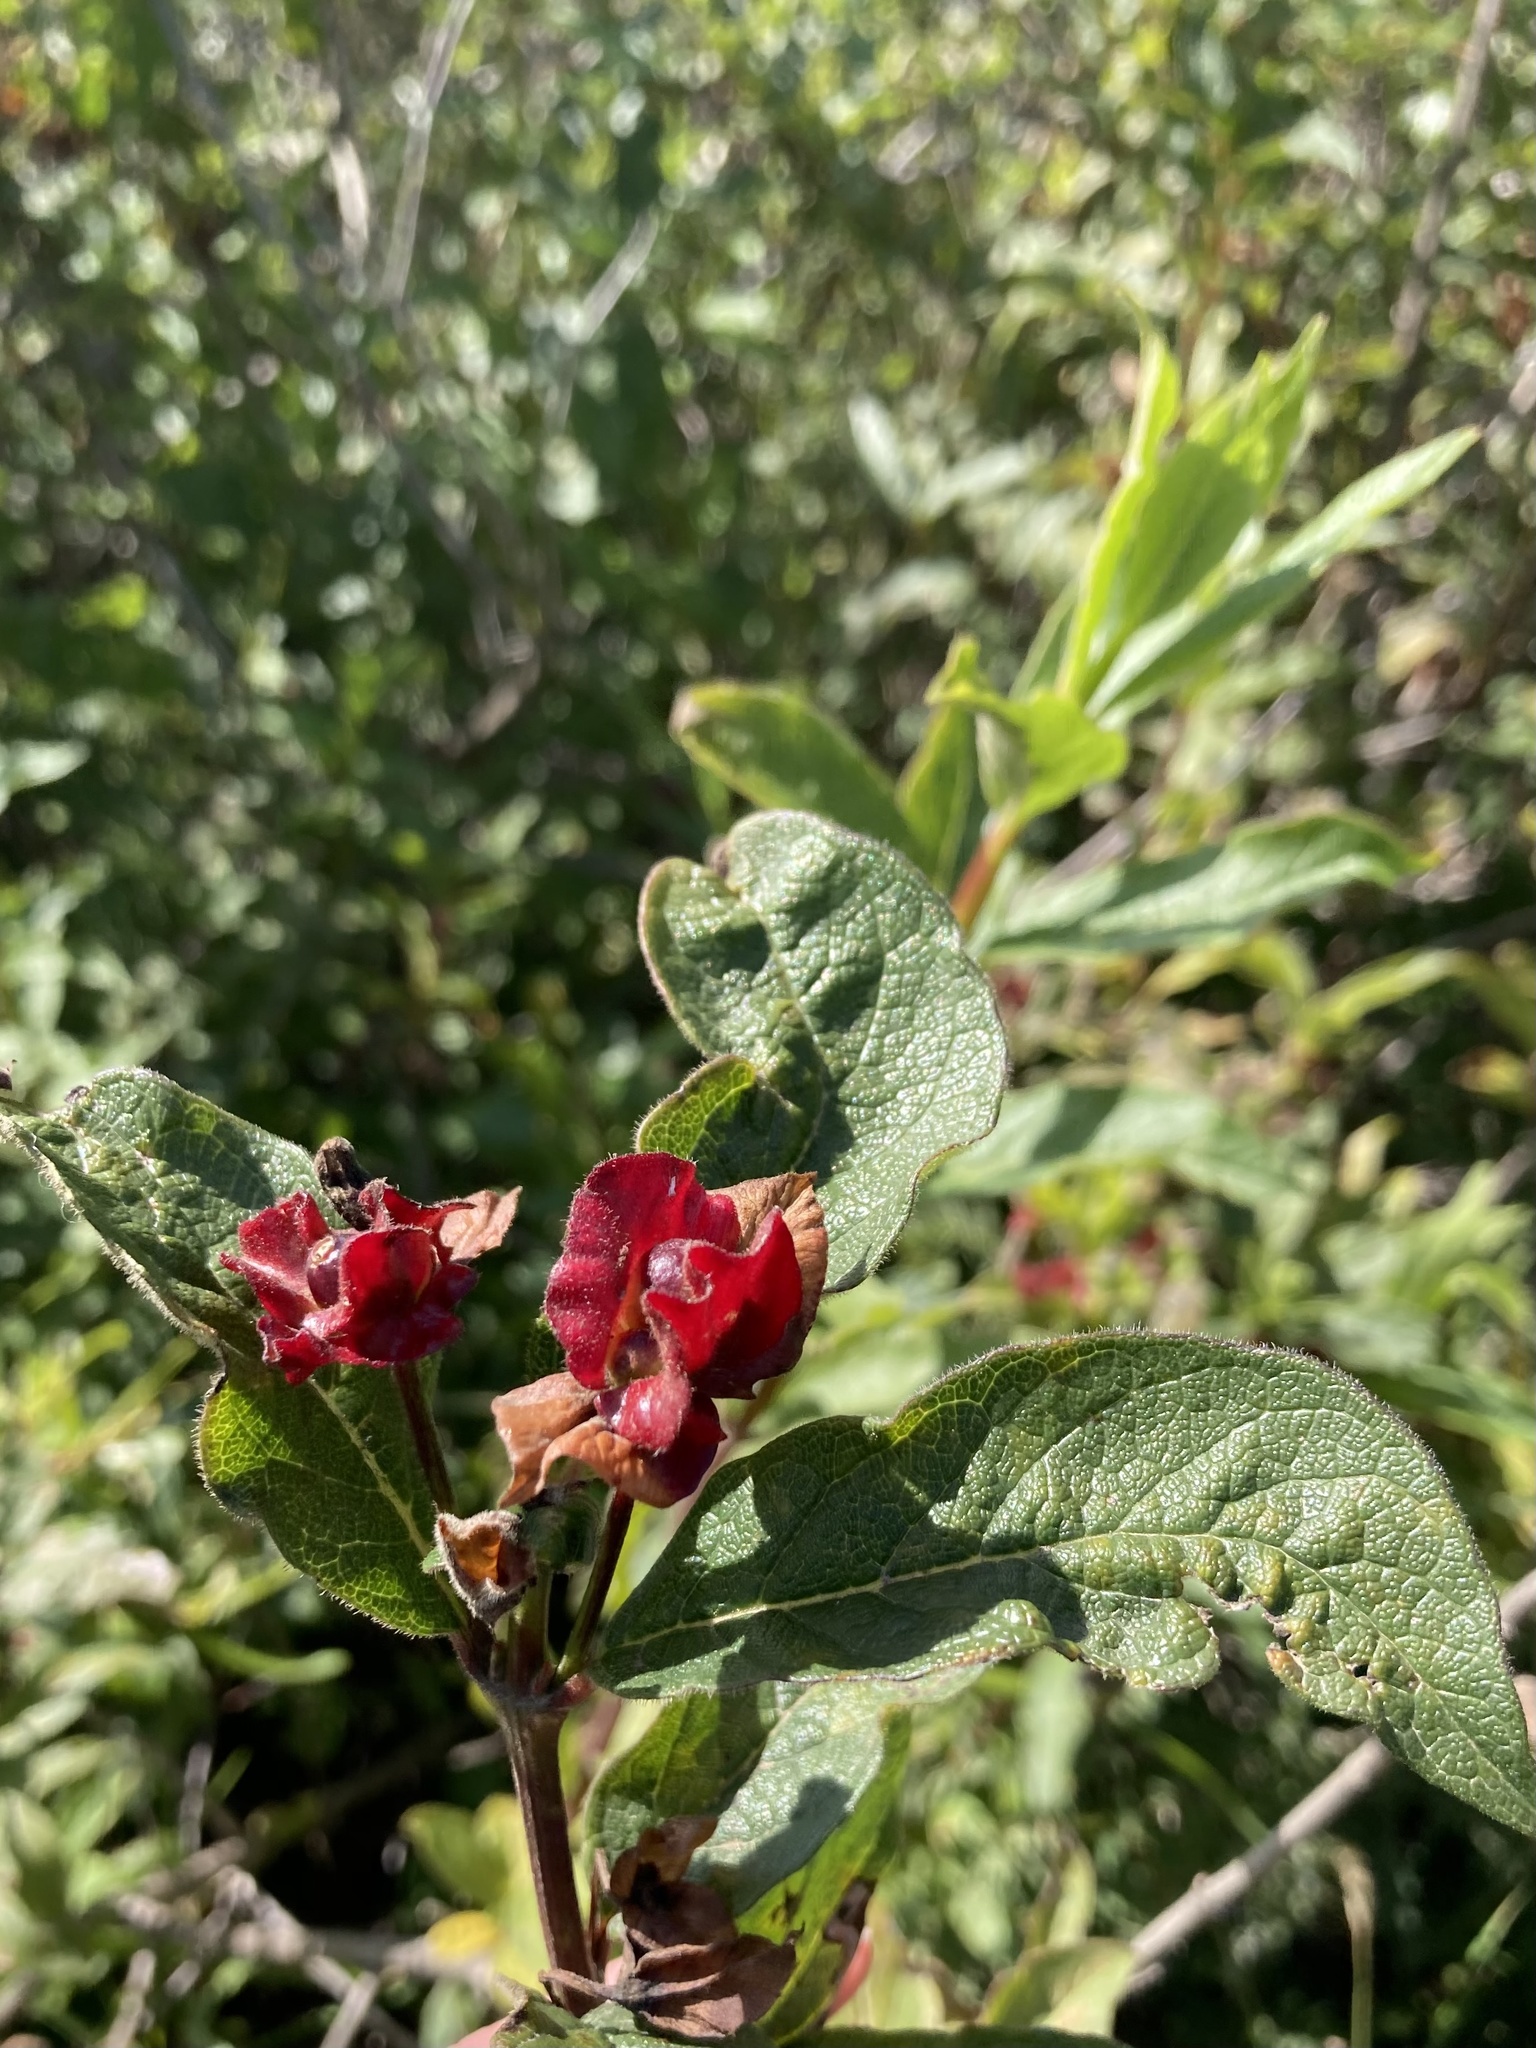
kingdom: Plantae
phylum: Tracheophyta
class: Magnoliopsida
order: Dipsacales
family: Caprifoliaceae
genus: Lonicera
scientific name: Lonicera involucrata
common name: Californian honeysuckle
